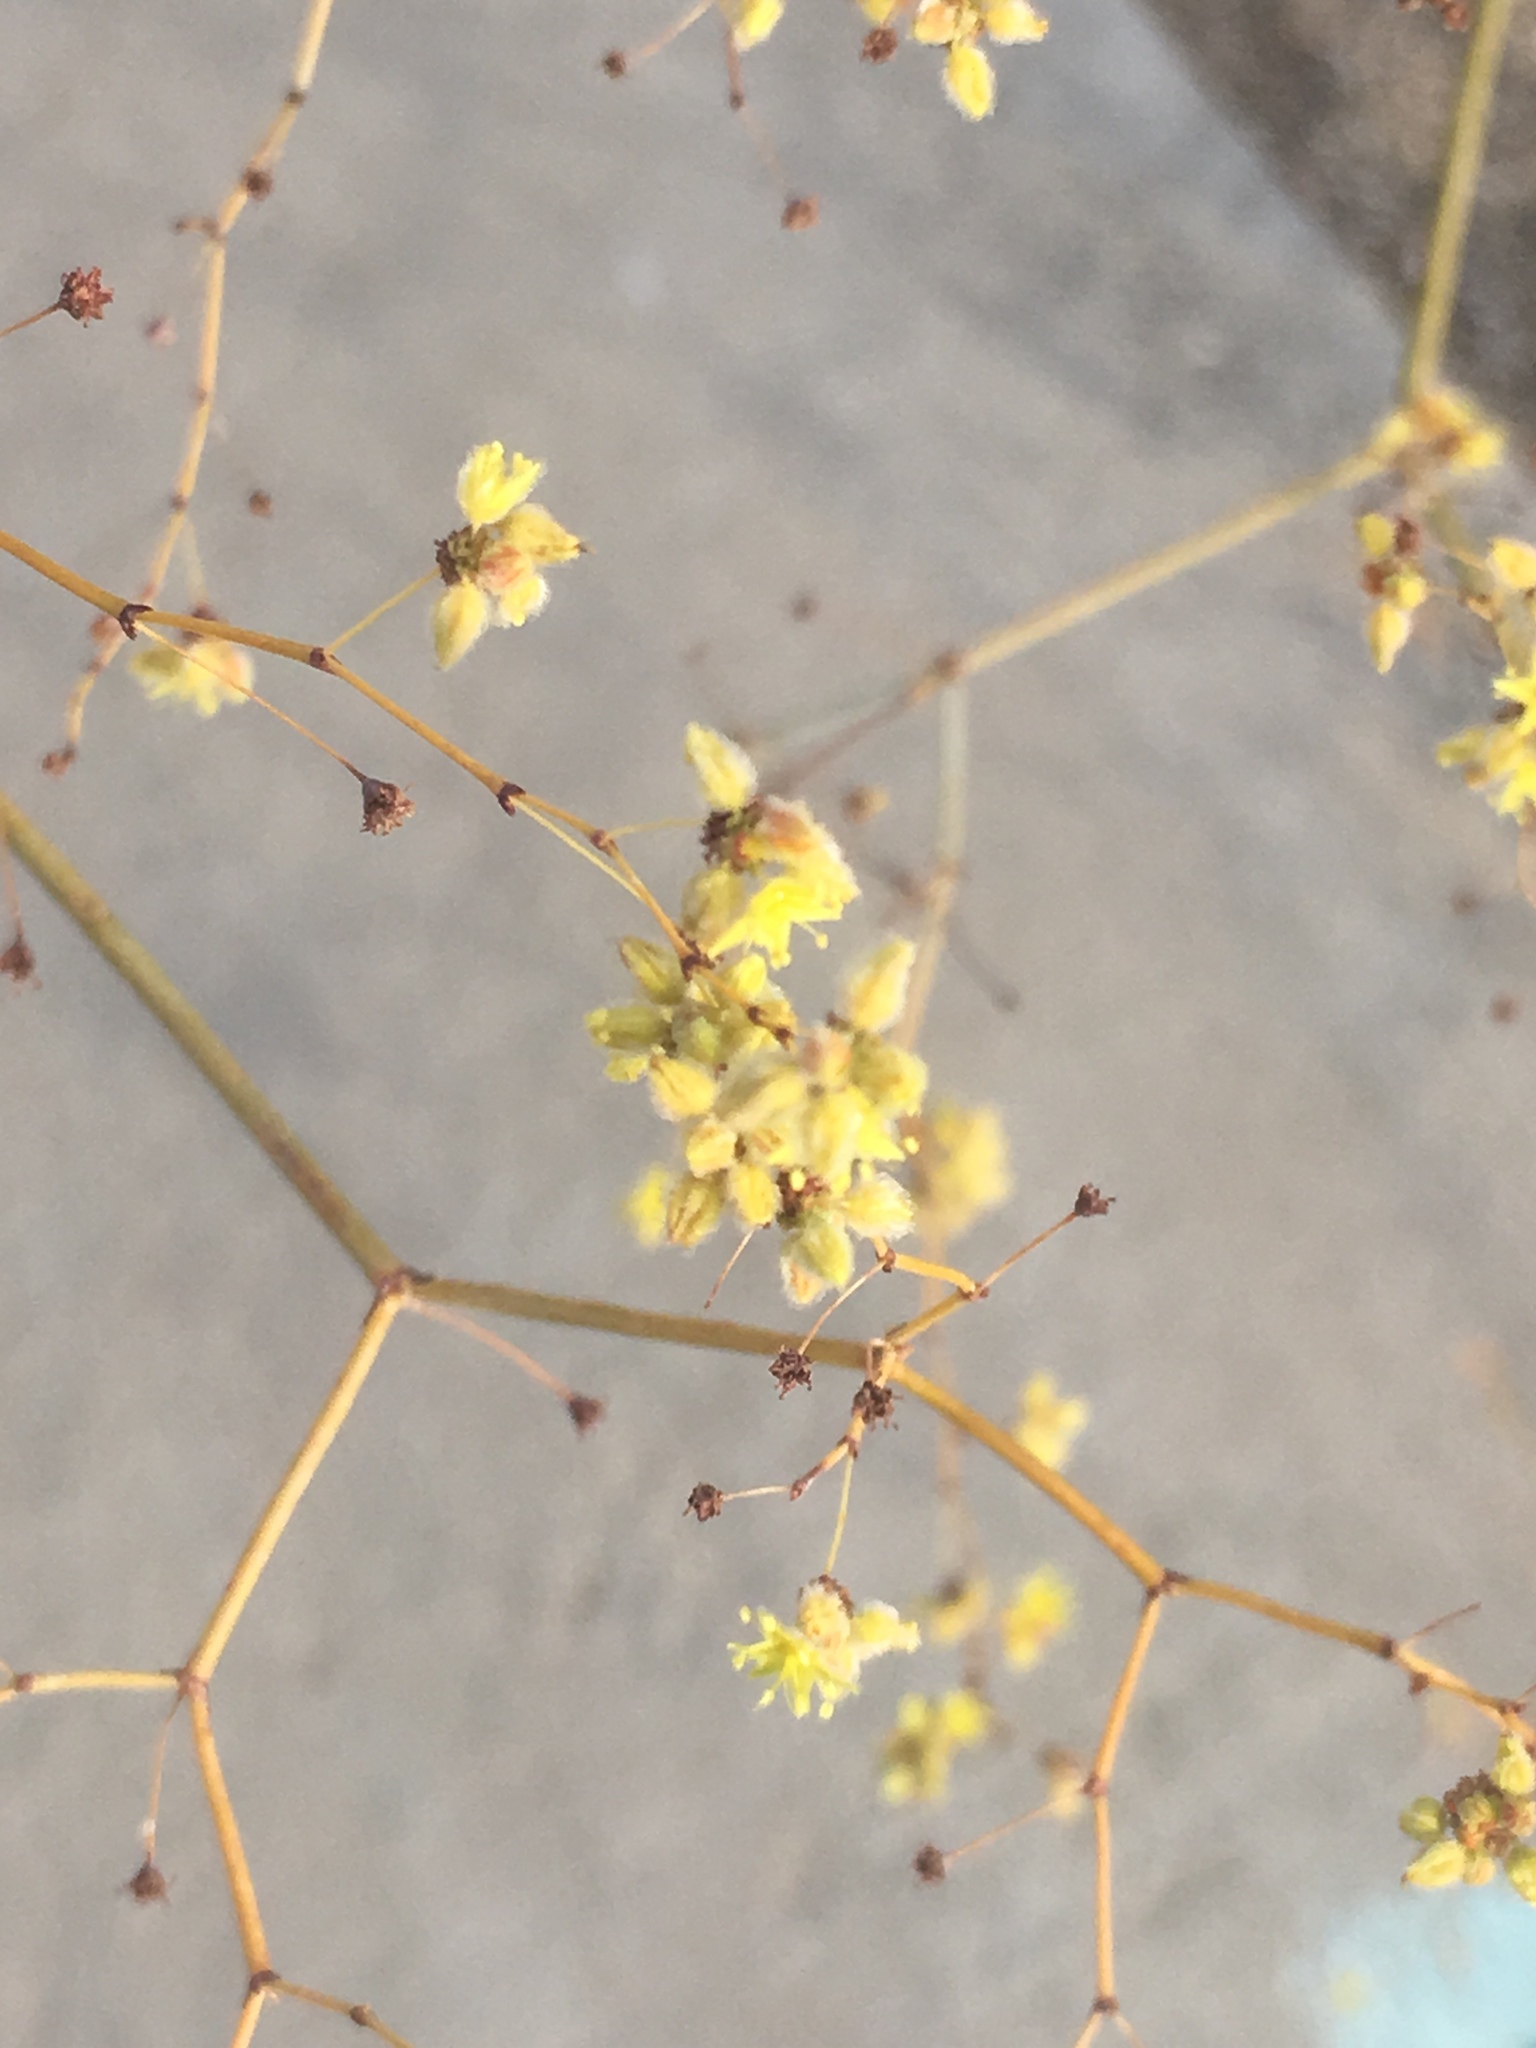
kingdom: Plantae
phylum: Tracheophyta
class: Magnoliopsida
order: Caryophyllales
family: Polygonaceae
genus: Eriogonum
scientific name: Eriogonum inflatum
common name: Desert trumpet
